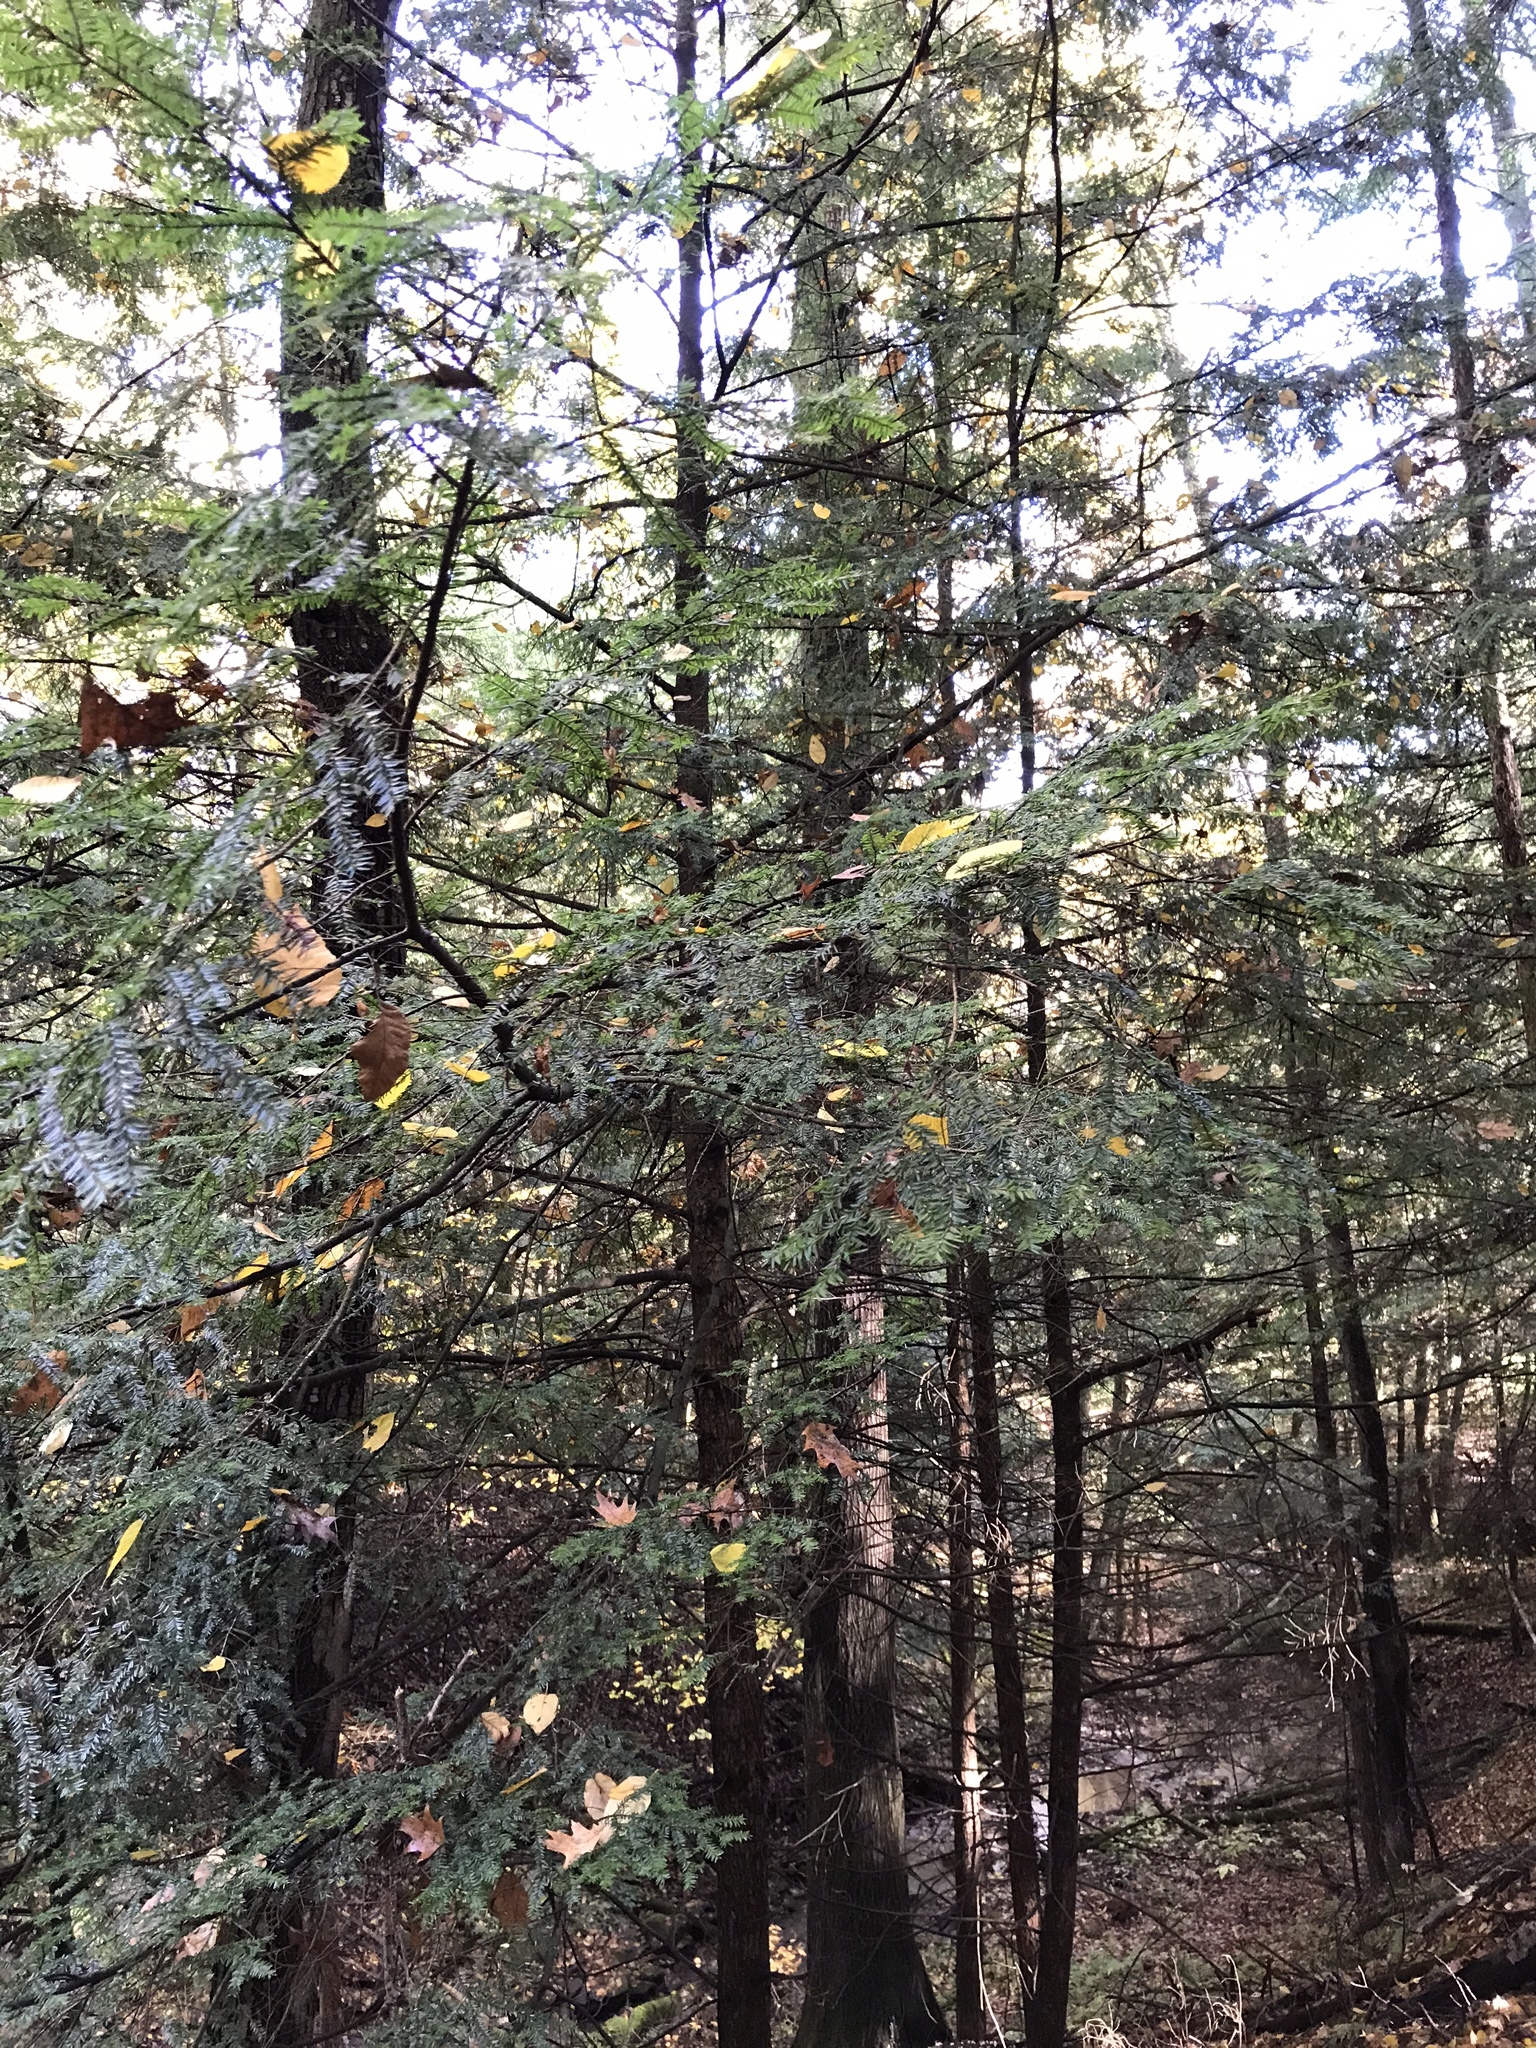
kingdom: Plantae
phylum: Tracheophyta
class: Pinopsida
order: Pinales
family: Pinaceae
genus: Tsuga
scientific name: Tsuga canadensis
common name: Eastern hemlock
